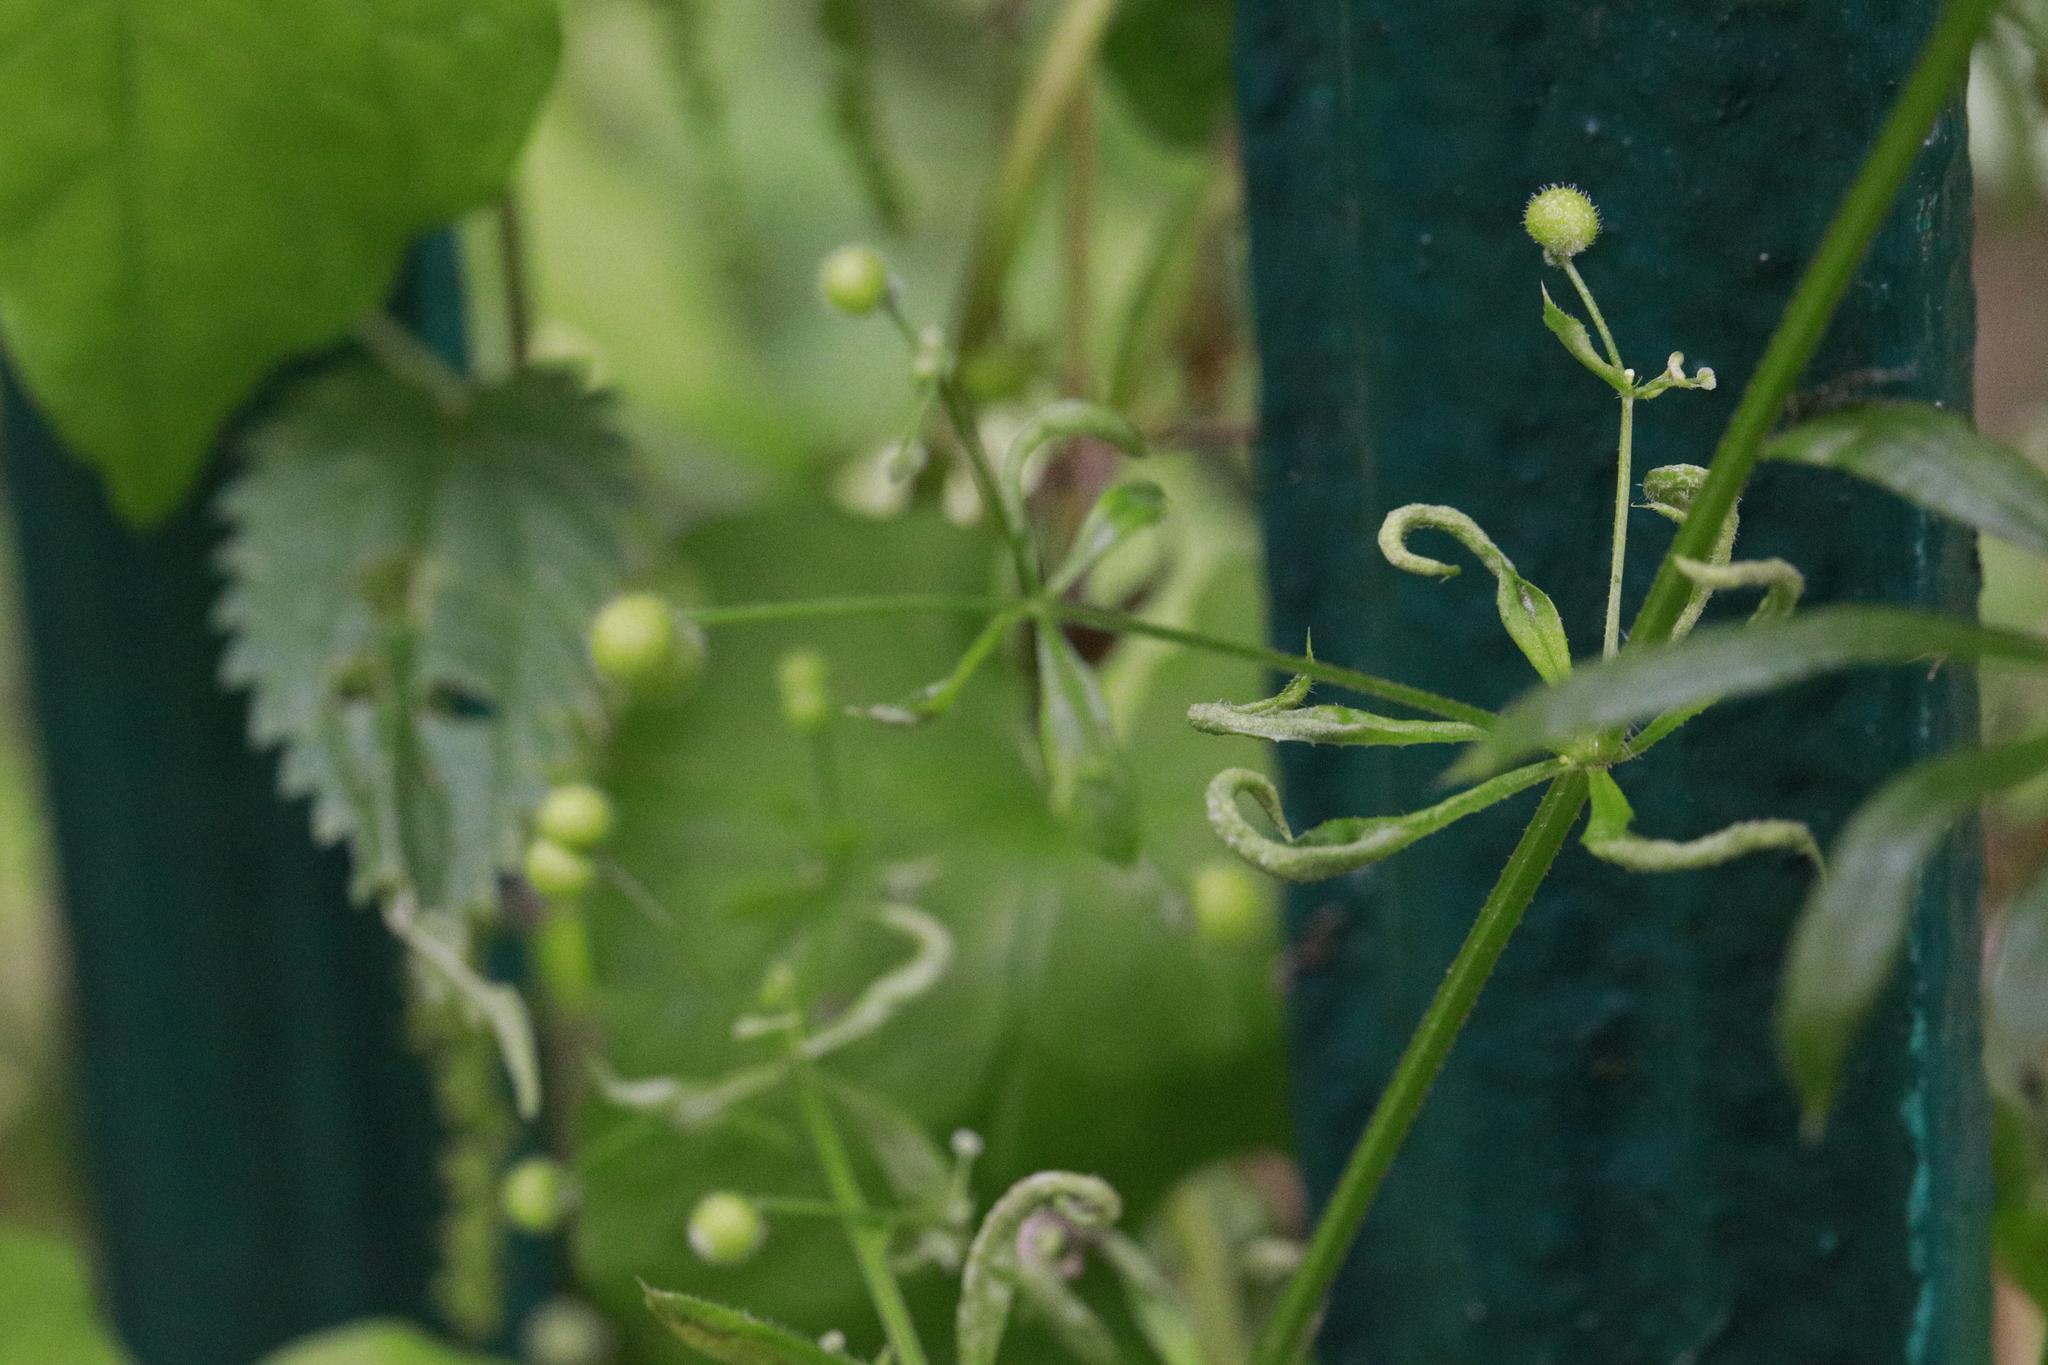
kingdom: Plantae
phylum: Tracheophyta
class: Magnoliopsida
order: Gentianales
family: Rubiaceae
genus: Galium
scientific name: Galium aparine
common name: Cleavers
